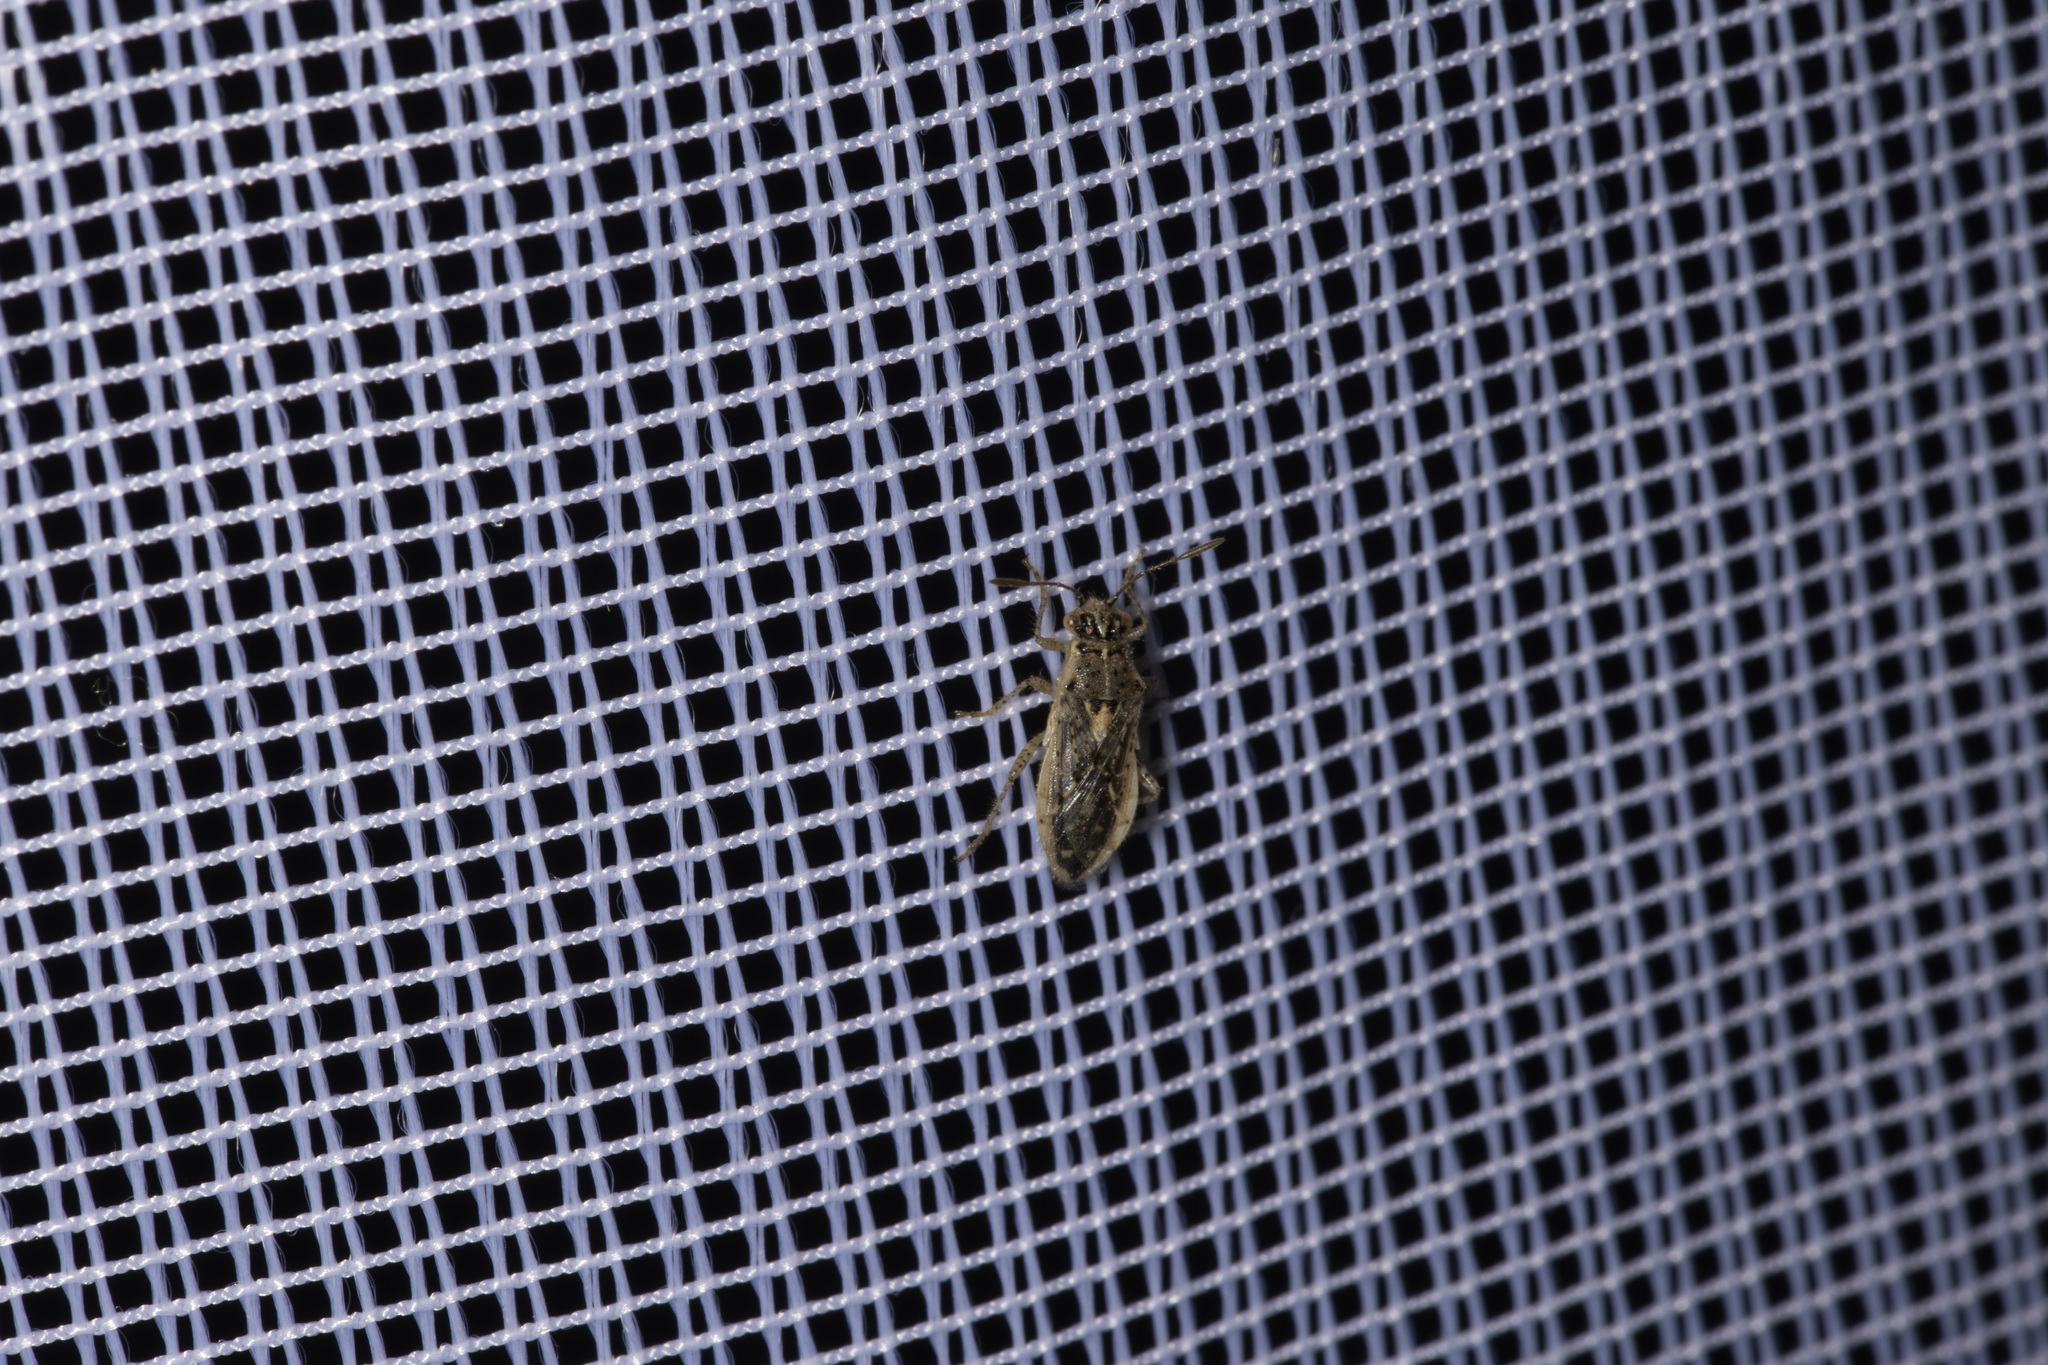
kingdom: Animalia
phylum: Arthropoda
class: Insecta
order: Hemiptera
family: Rhopalidae
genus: Brachycarenus
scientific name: Brachycarenus tigrinus
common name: Scentless plant bug
